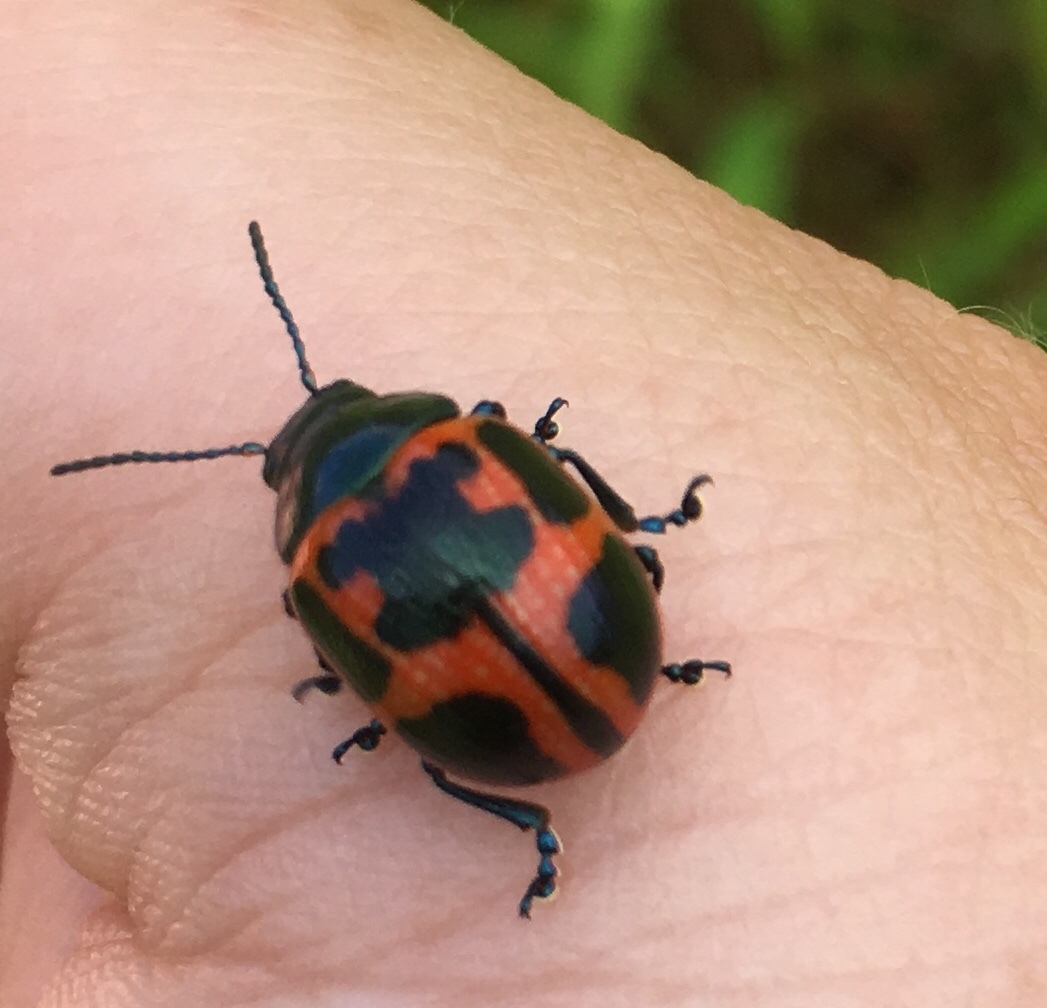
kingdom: Animalia
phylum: Arthropoda
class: Insecta
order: Coleoptera
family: Chrysomelidae
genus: Labidomera
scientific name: Labidomera clivicollis
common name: Swamp milkweed leaf beetle
